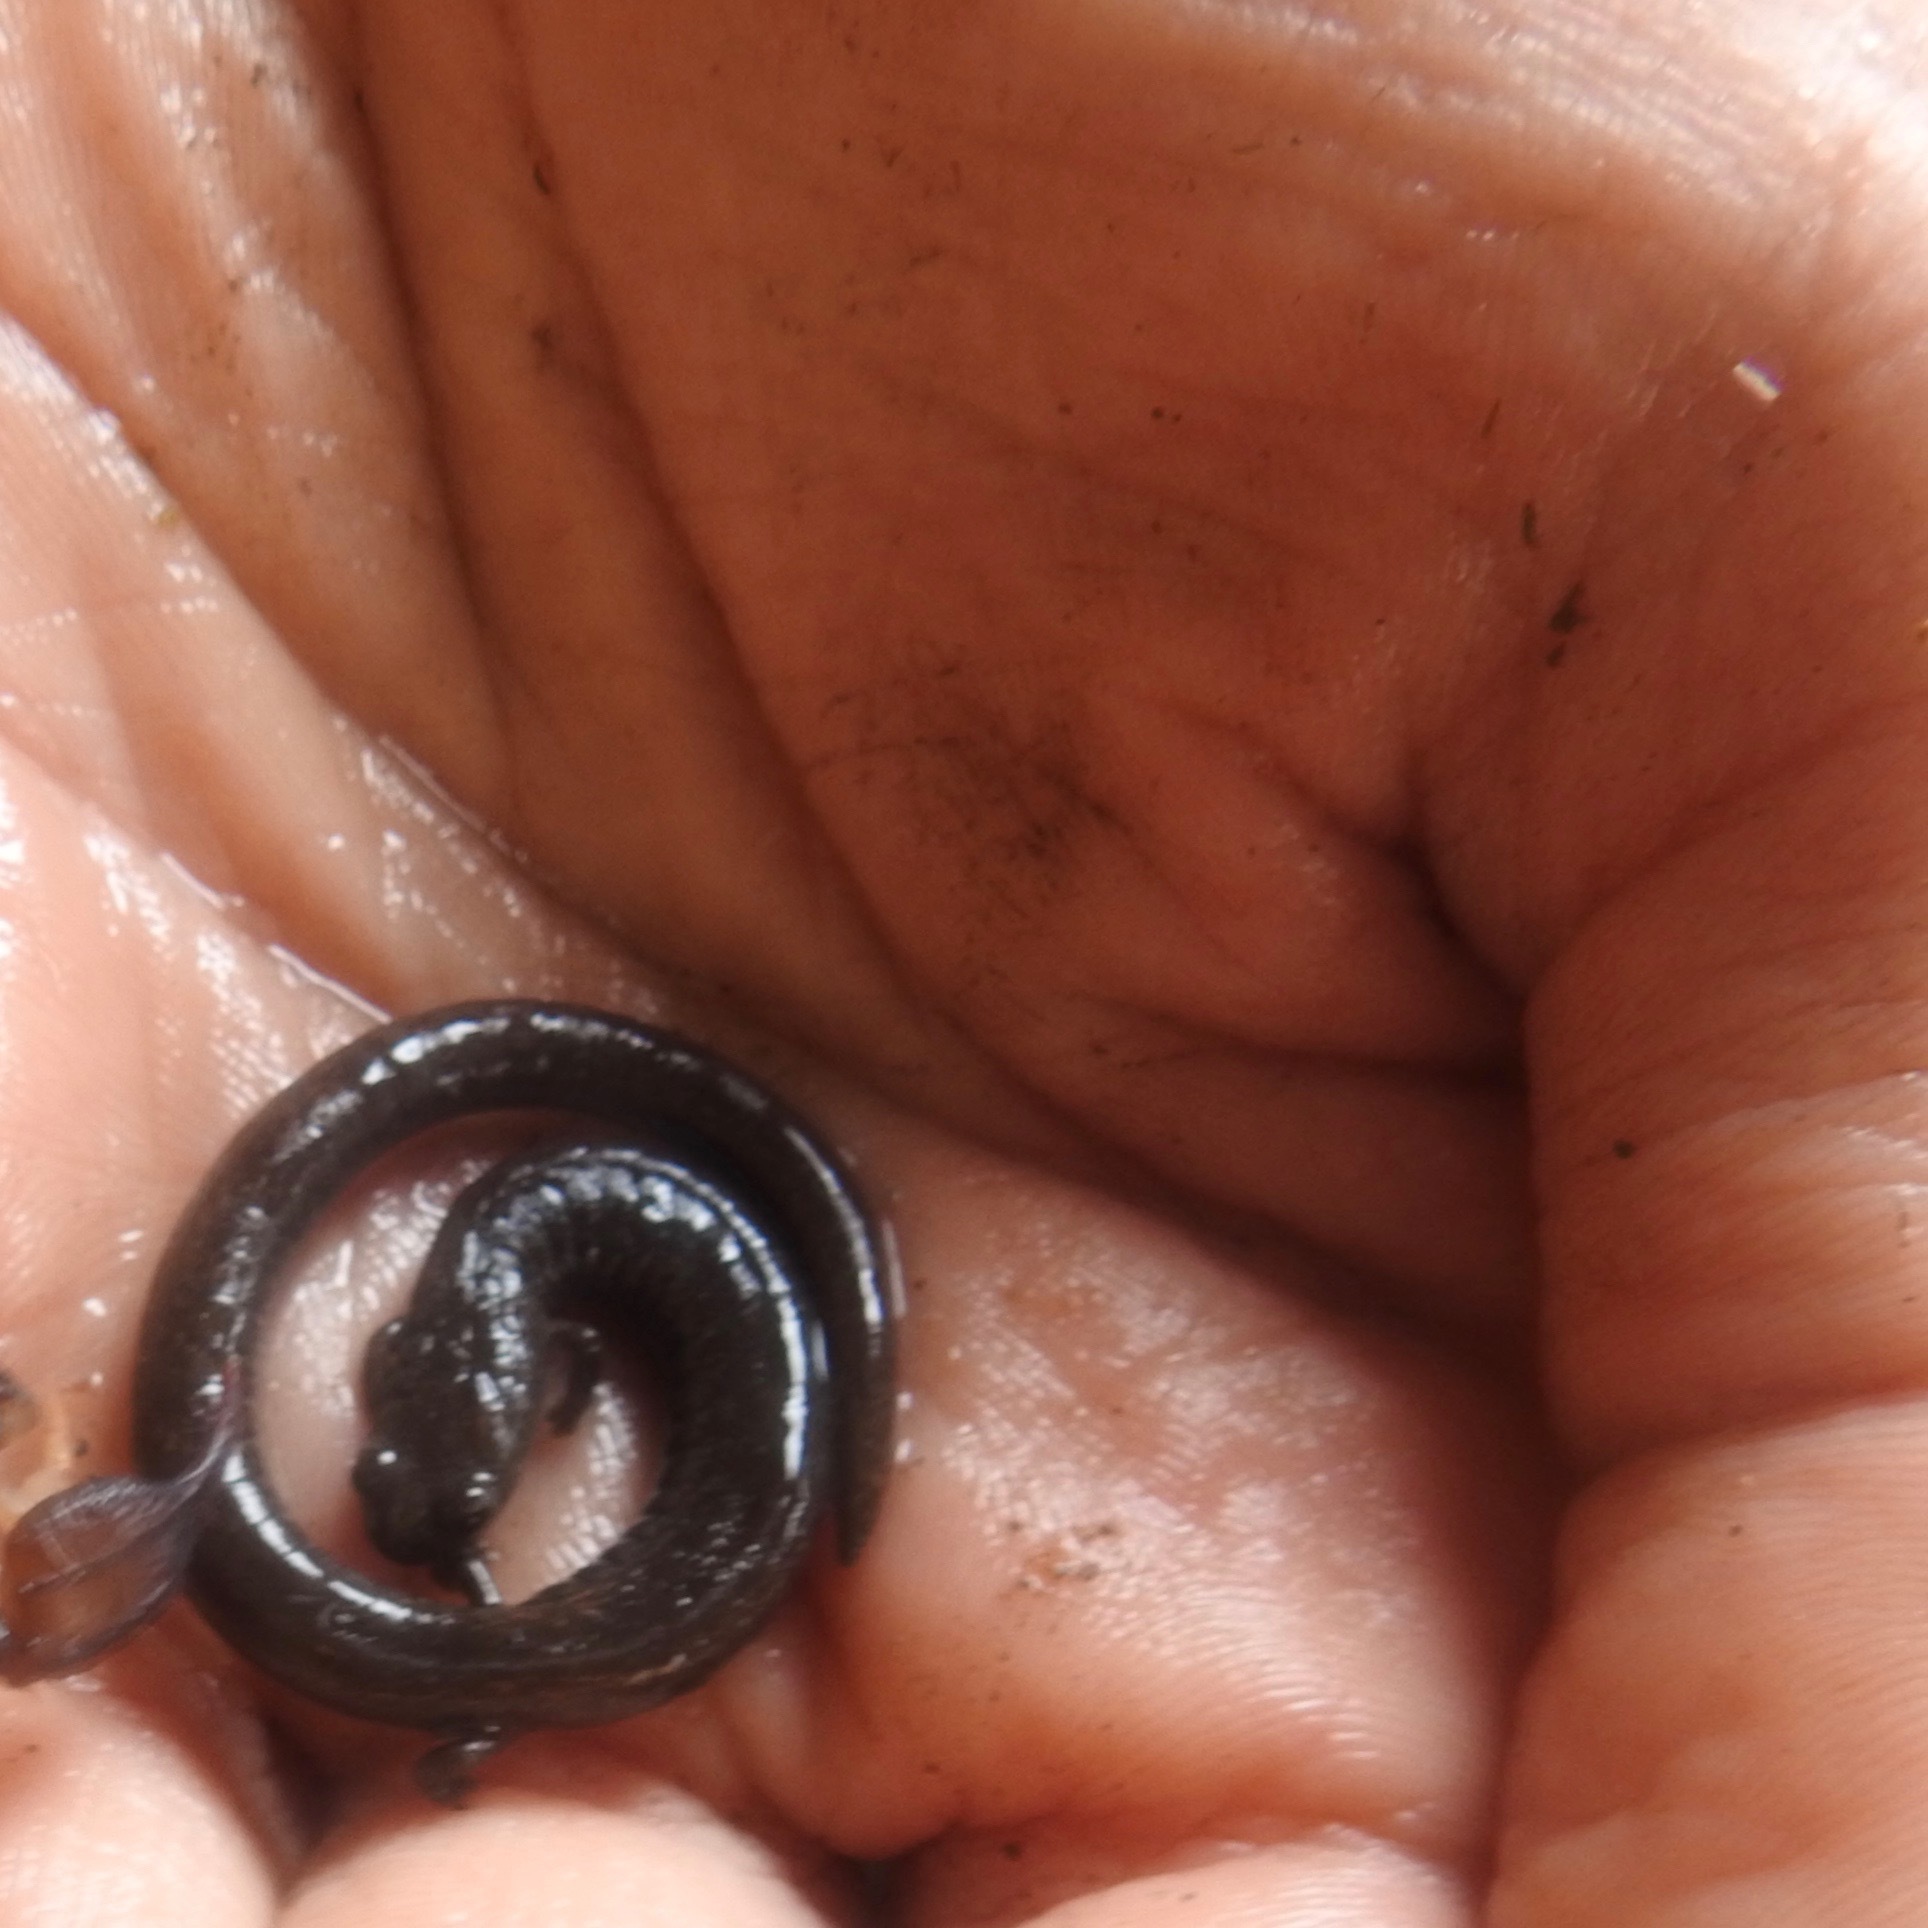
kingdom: Animalia
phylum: Chordata
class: Amphibia
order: Caudata
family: Plethodontidae
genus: Batrachoseps
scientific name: Batrachoseps attenuatus
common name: California slender salamander
